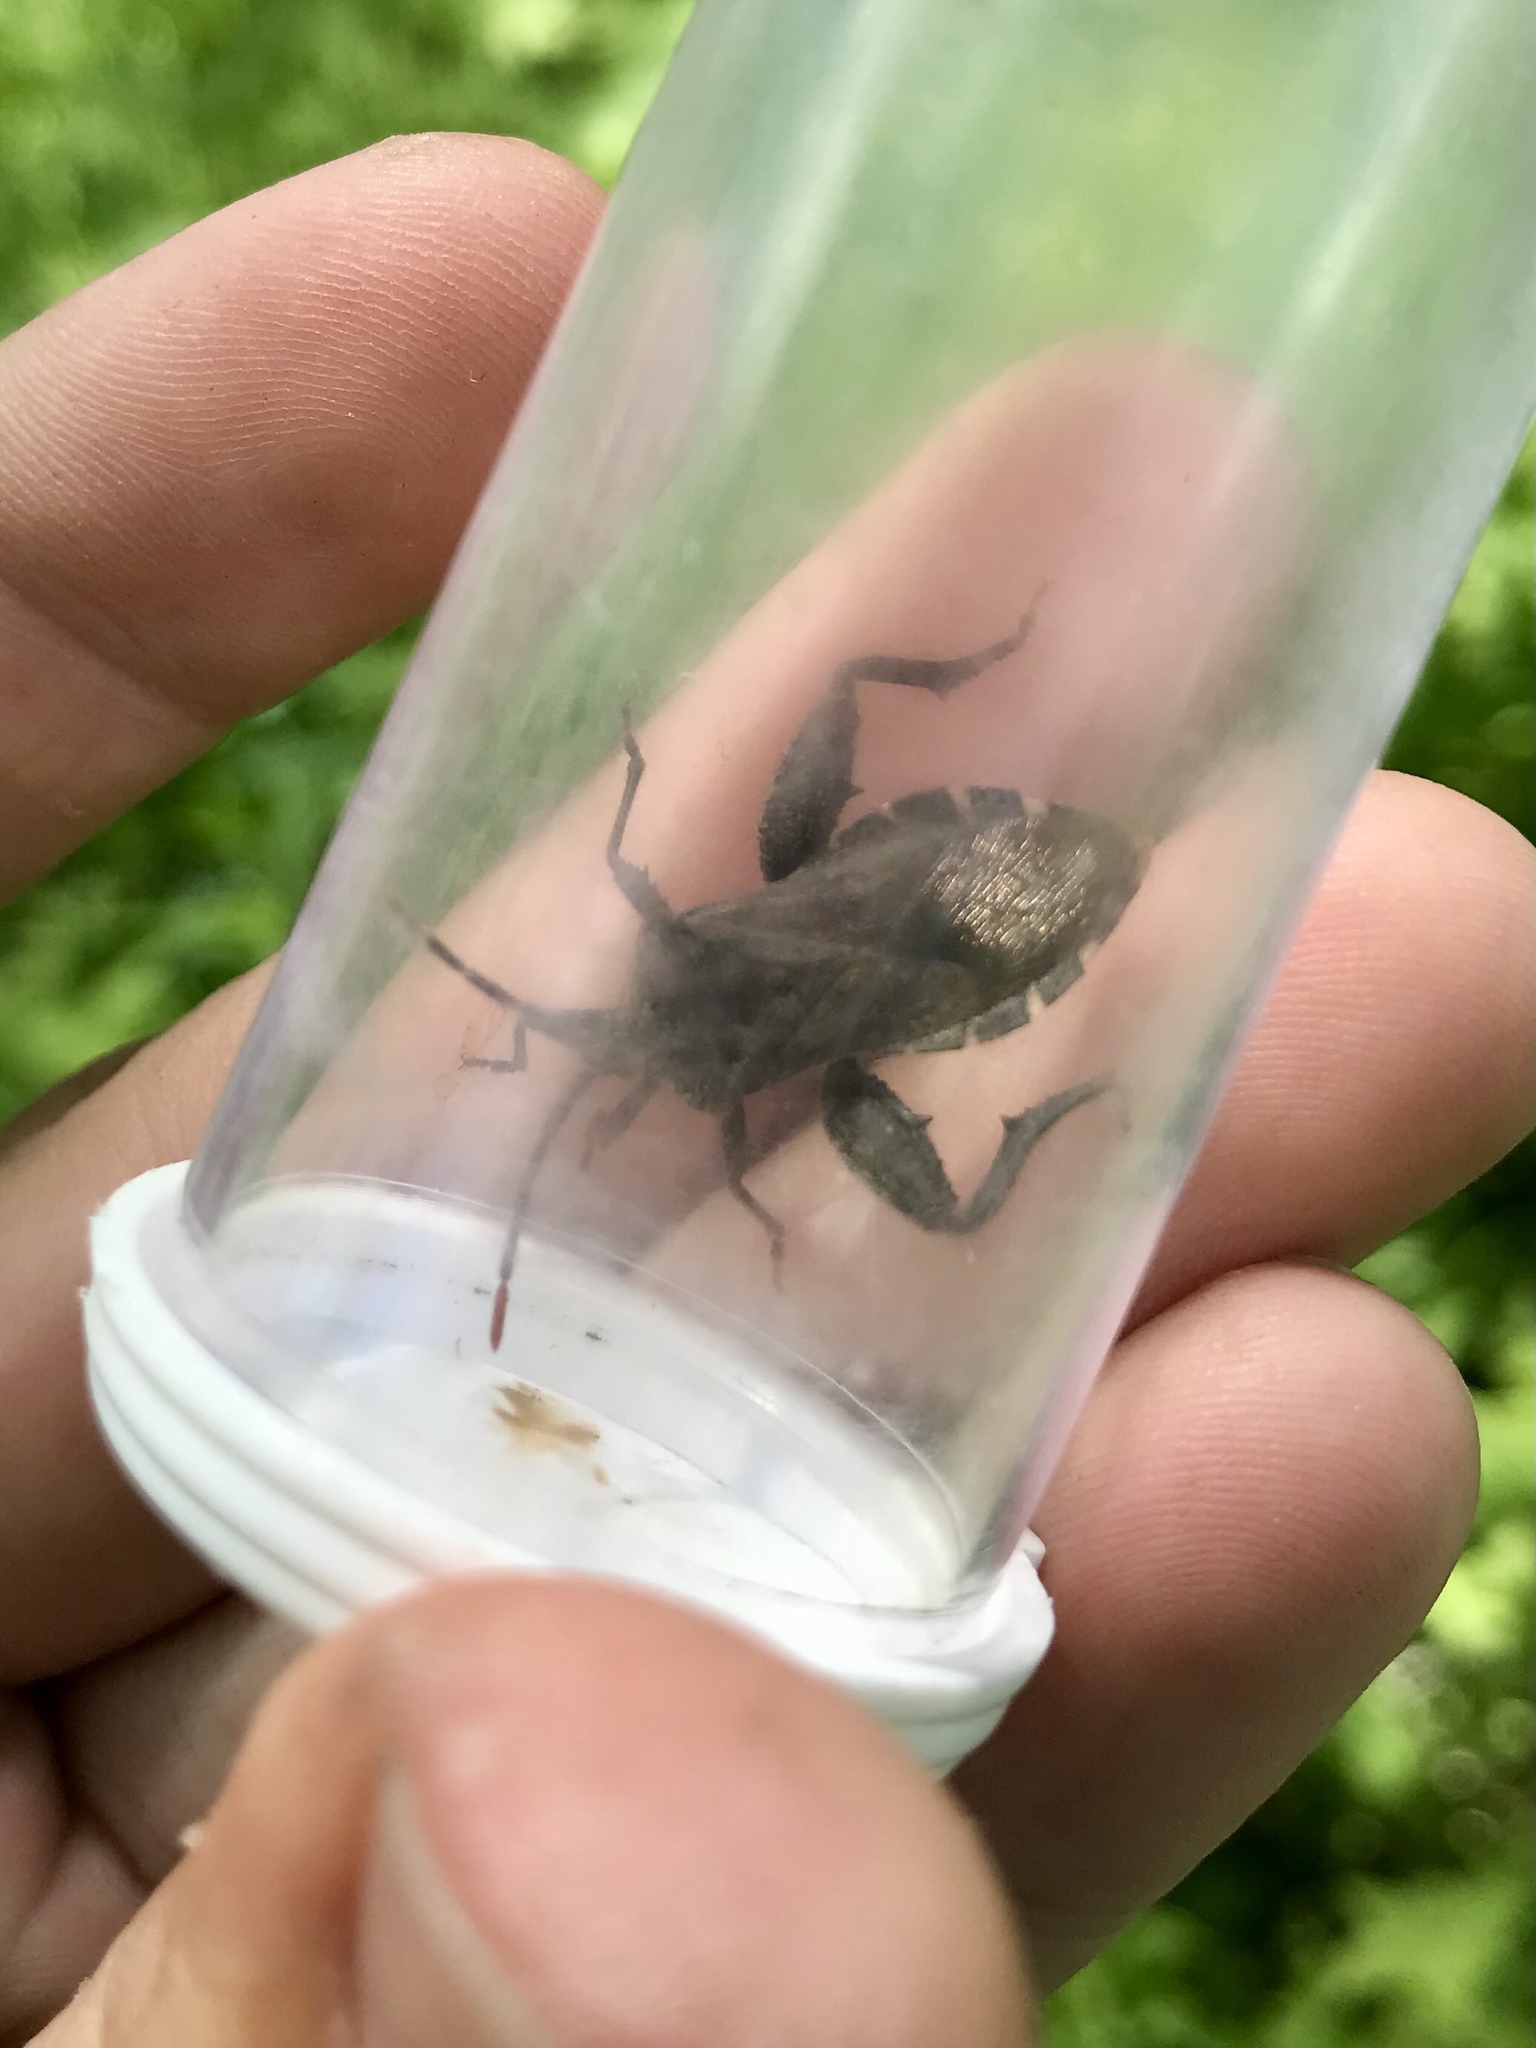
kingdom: Animalia
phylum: Arthropoda
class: Insecta
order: Hemiptera
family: Coreidae
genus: Piezogaster
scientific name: Piezogaster calcarator
